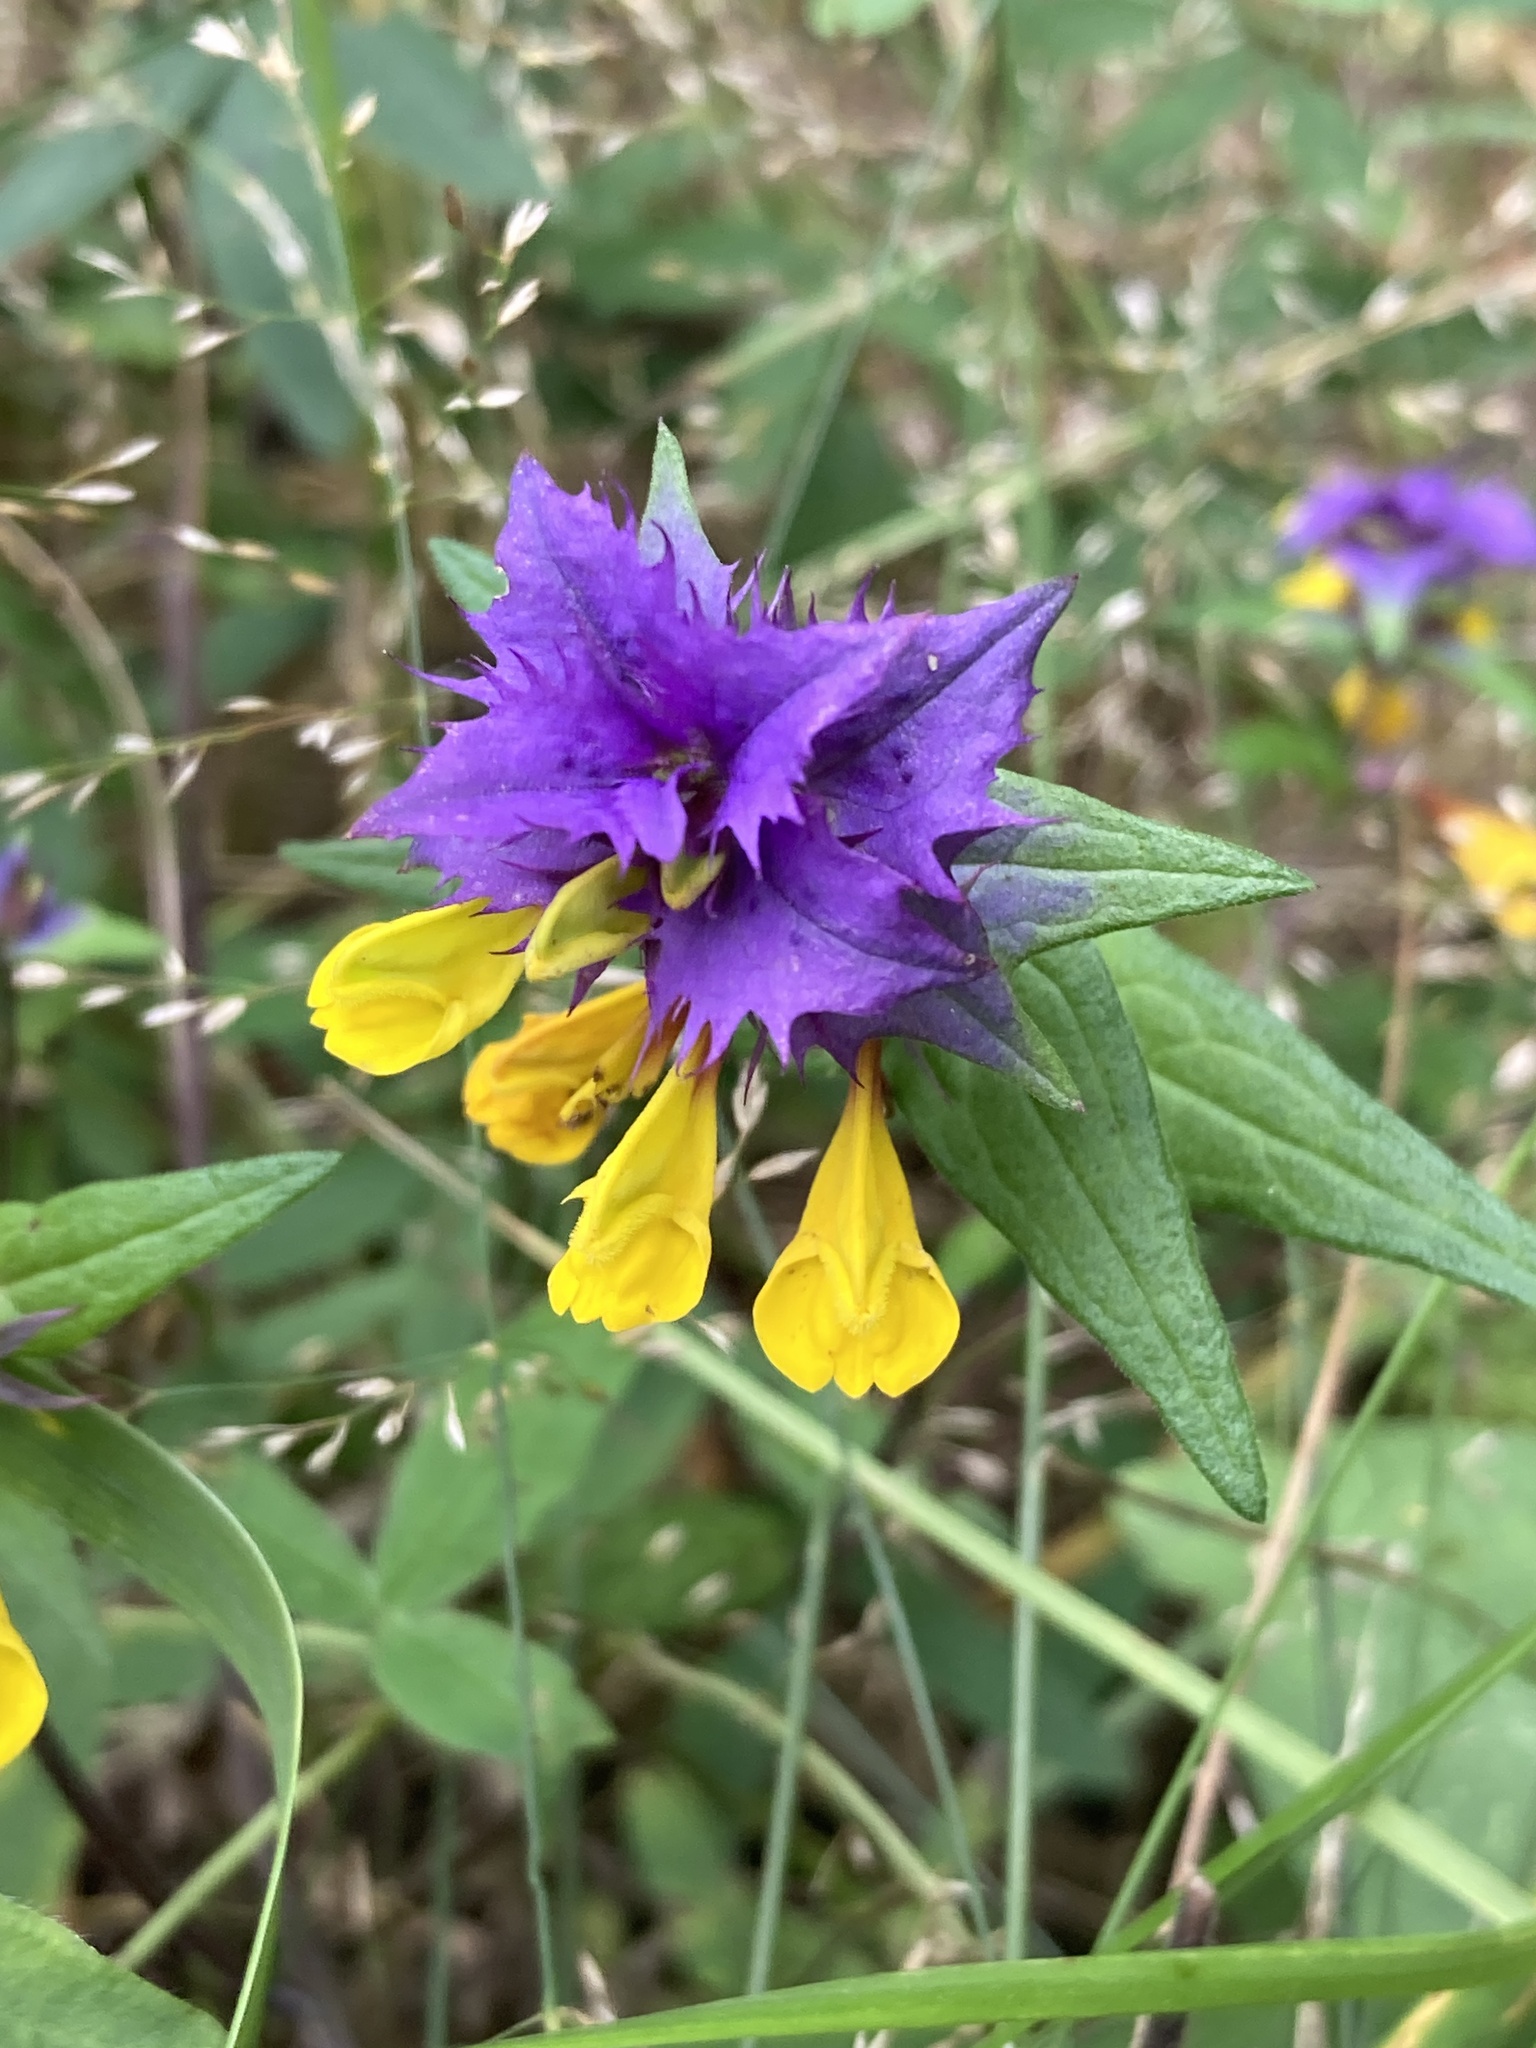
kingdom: Plantae
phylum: Tracheophyta
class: Magnoliopsida
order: Lamiales
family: Orobanchaceae
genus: Melampyrum
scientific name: Melampyrum nemorosum
